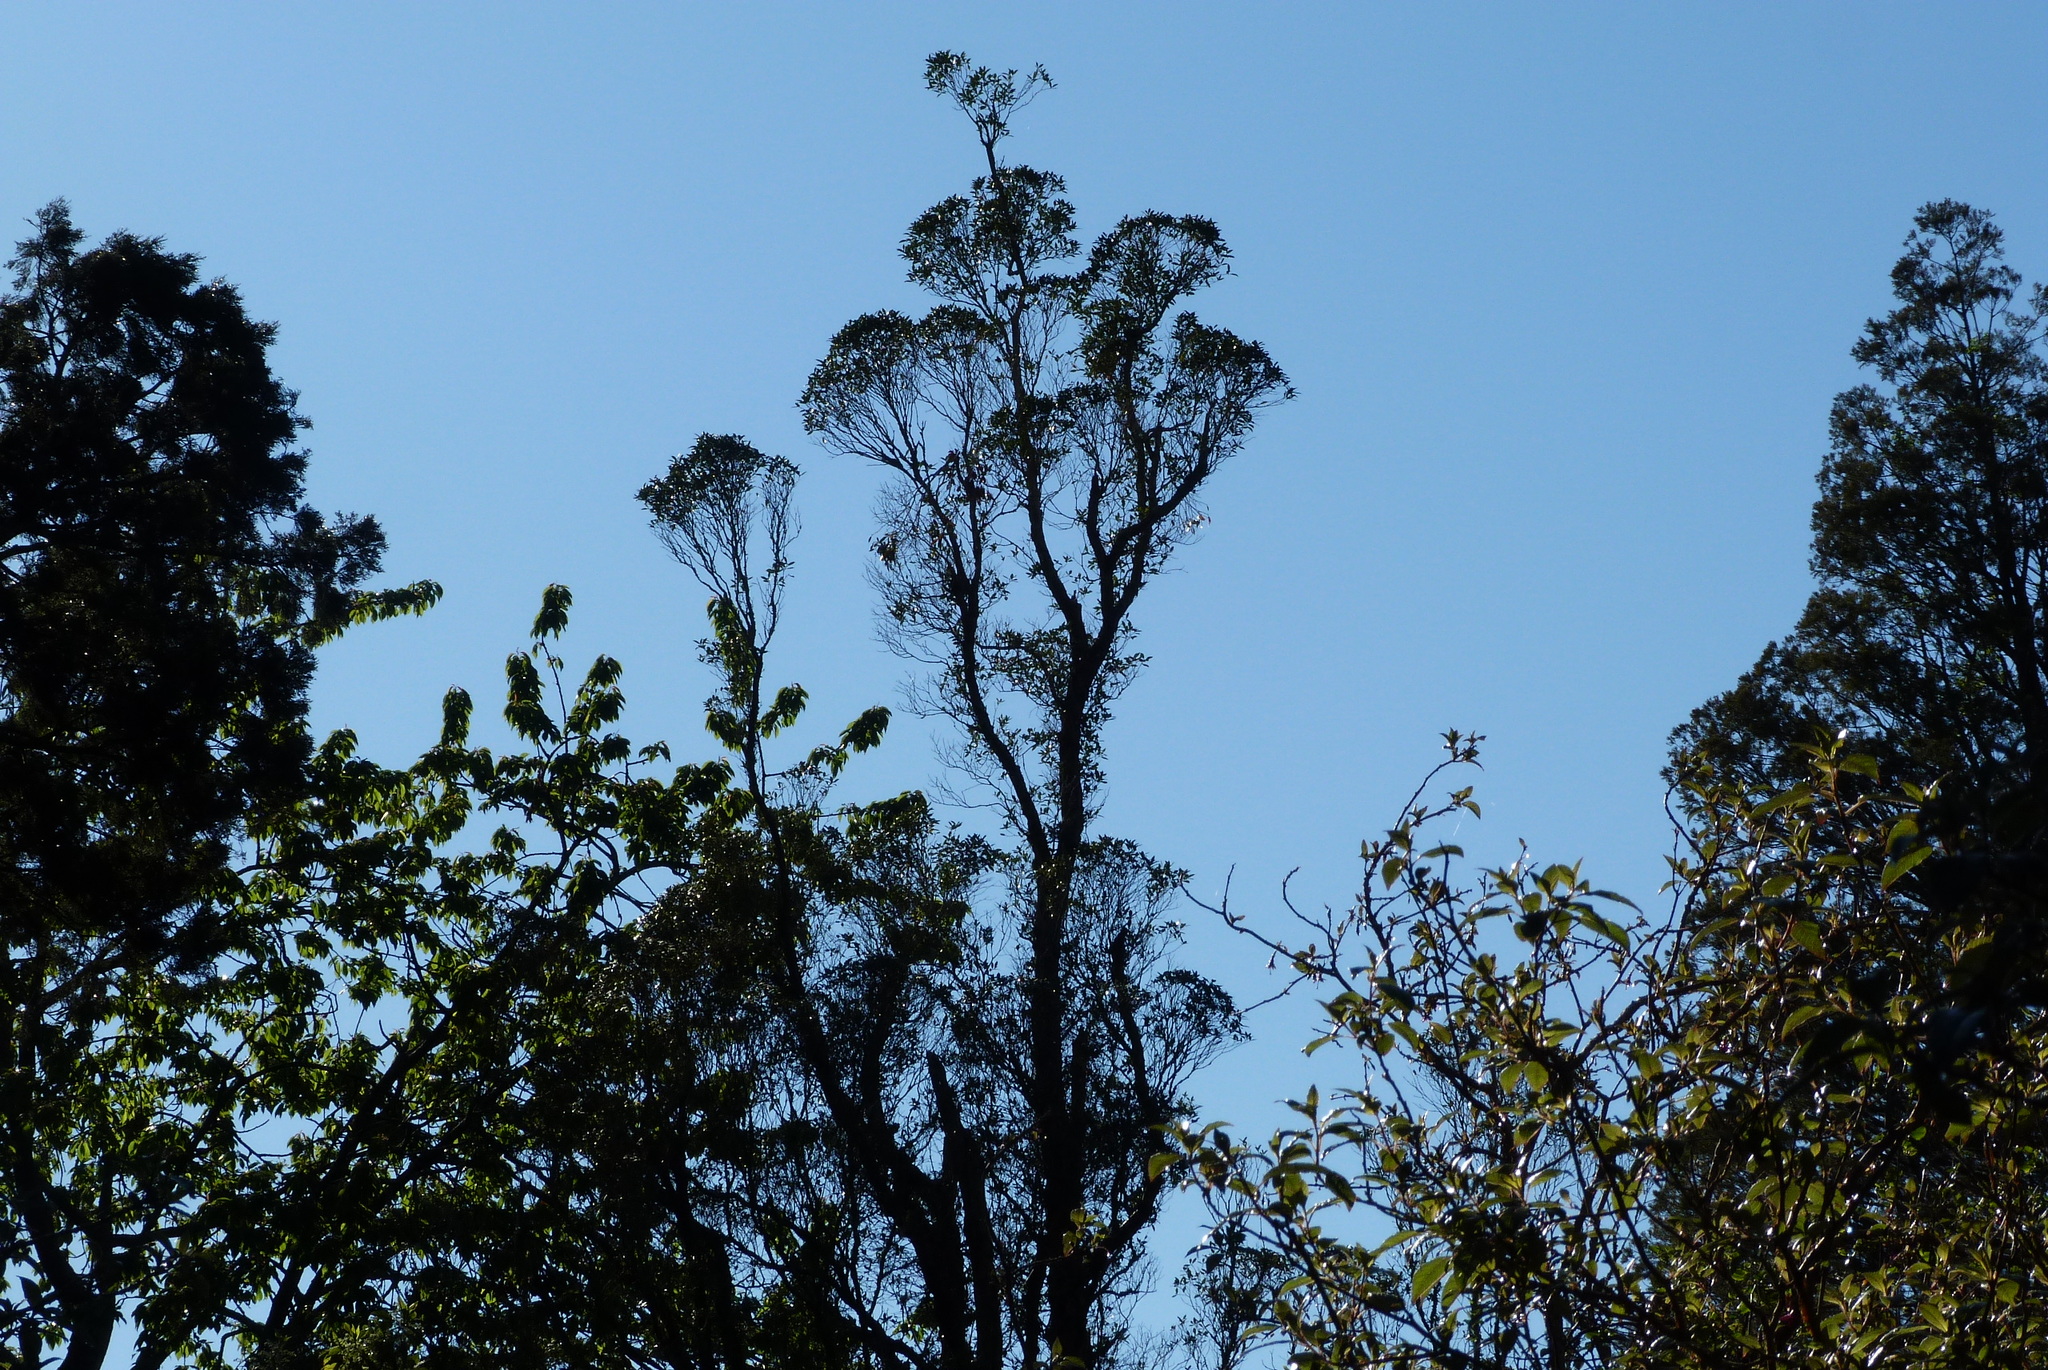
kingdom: Plantae
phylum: Tracheophyta
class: Magnoliopsida
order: Myrtales
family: Myrtaceae
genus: Metrosideros
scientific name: Metrosideros umbellata
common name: Southern rata
